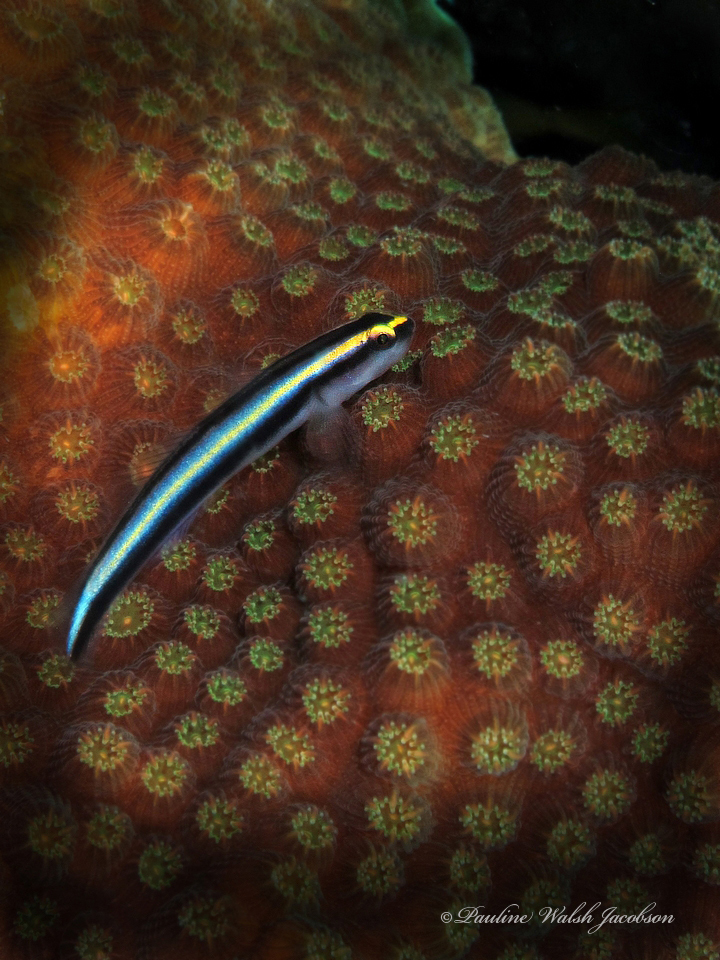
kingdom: Animalia
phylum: Chordata
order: Perciformes
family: Gobiidae
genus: Elacatinus
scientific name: Elacatinus evelynae
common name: Sharknose goby
